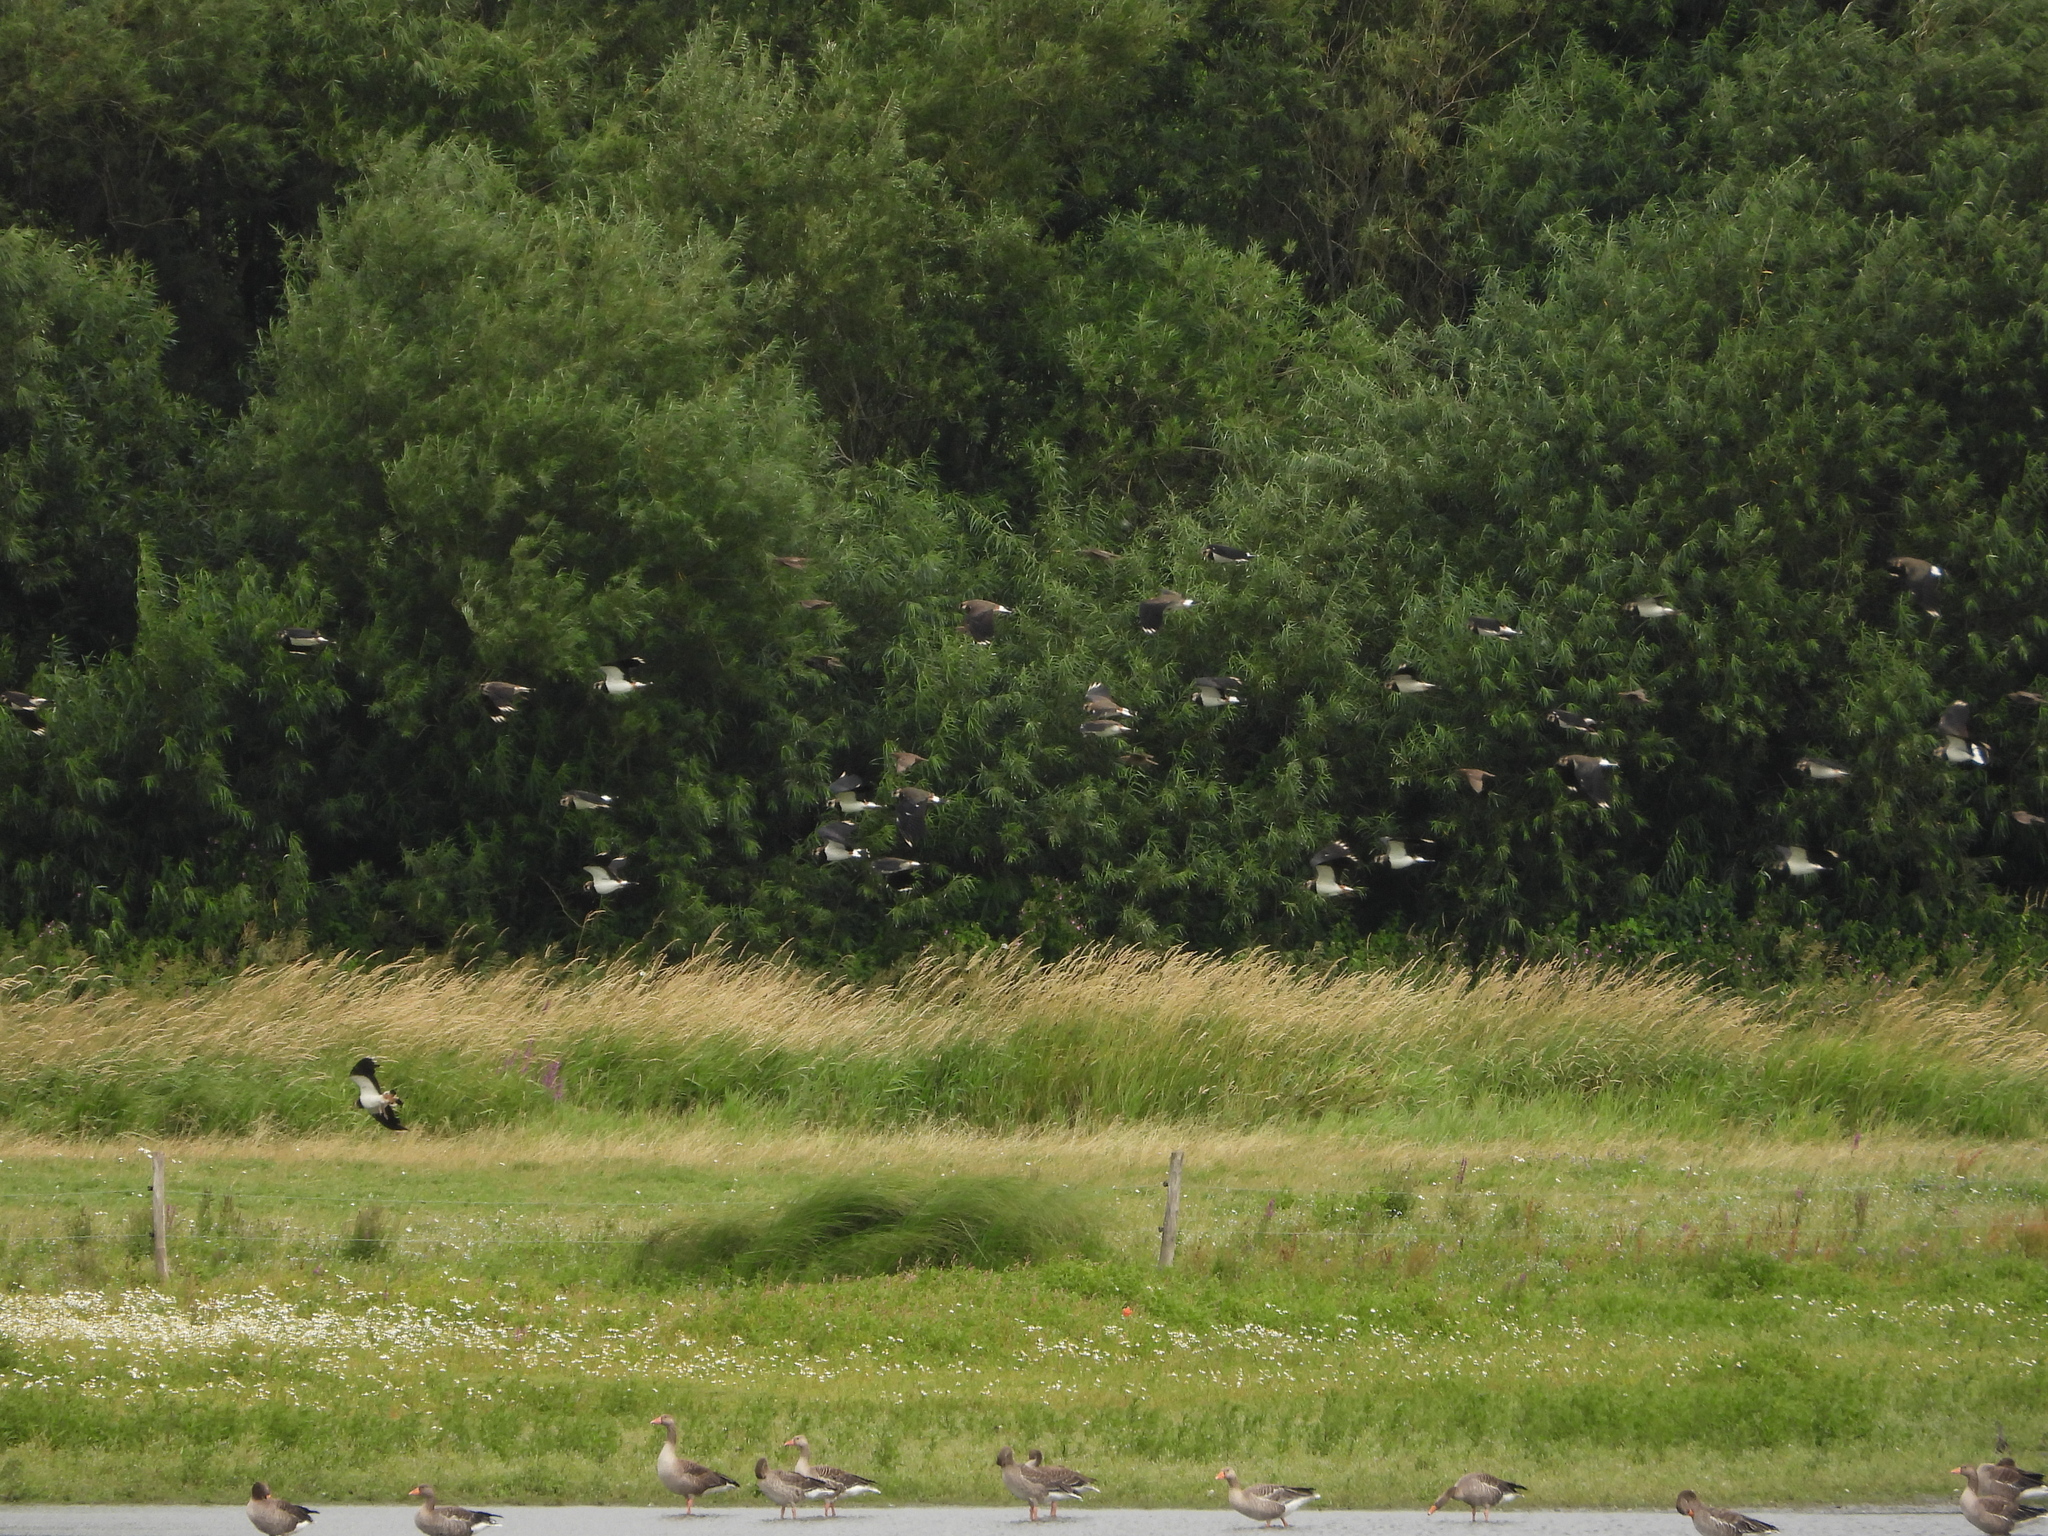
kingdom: Animalia
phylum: Chordata
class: Aves
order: Charadriiformes
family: Charadriidae
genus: Vanellus
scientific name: Vanellus vanellus
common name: Northern lapwing
